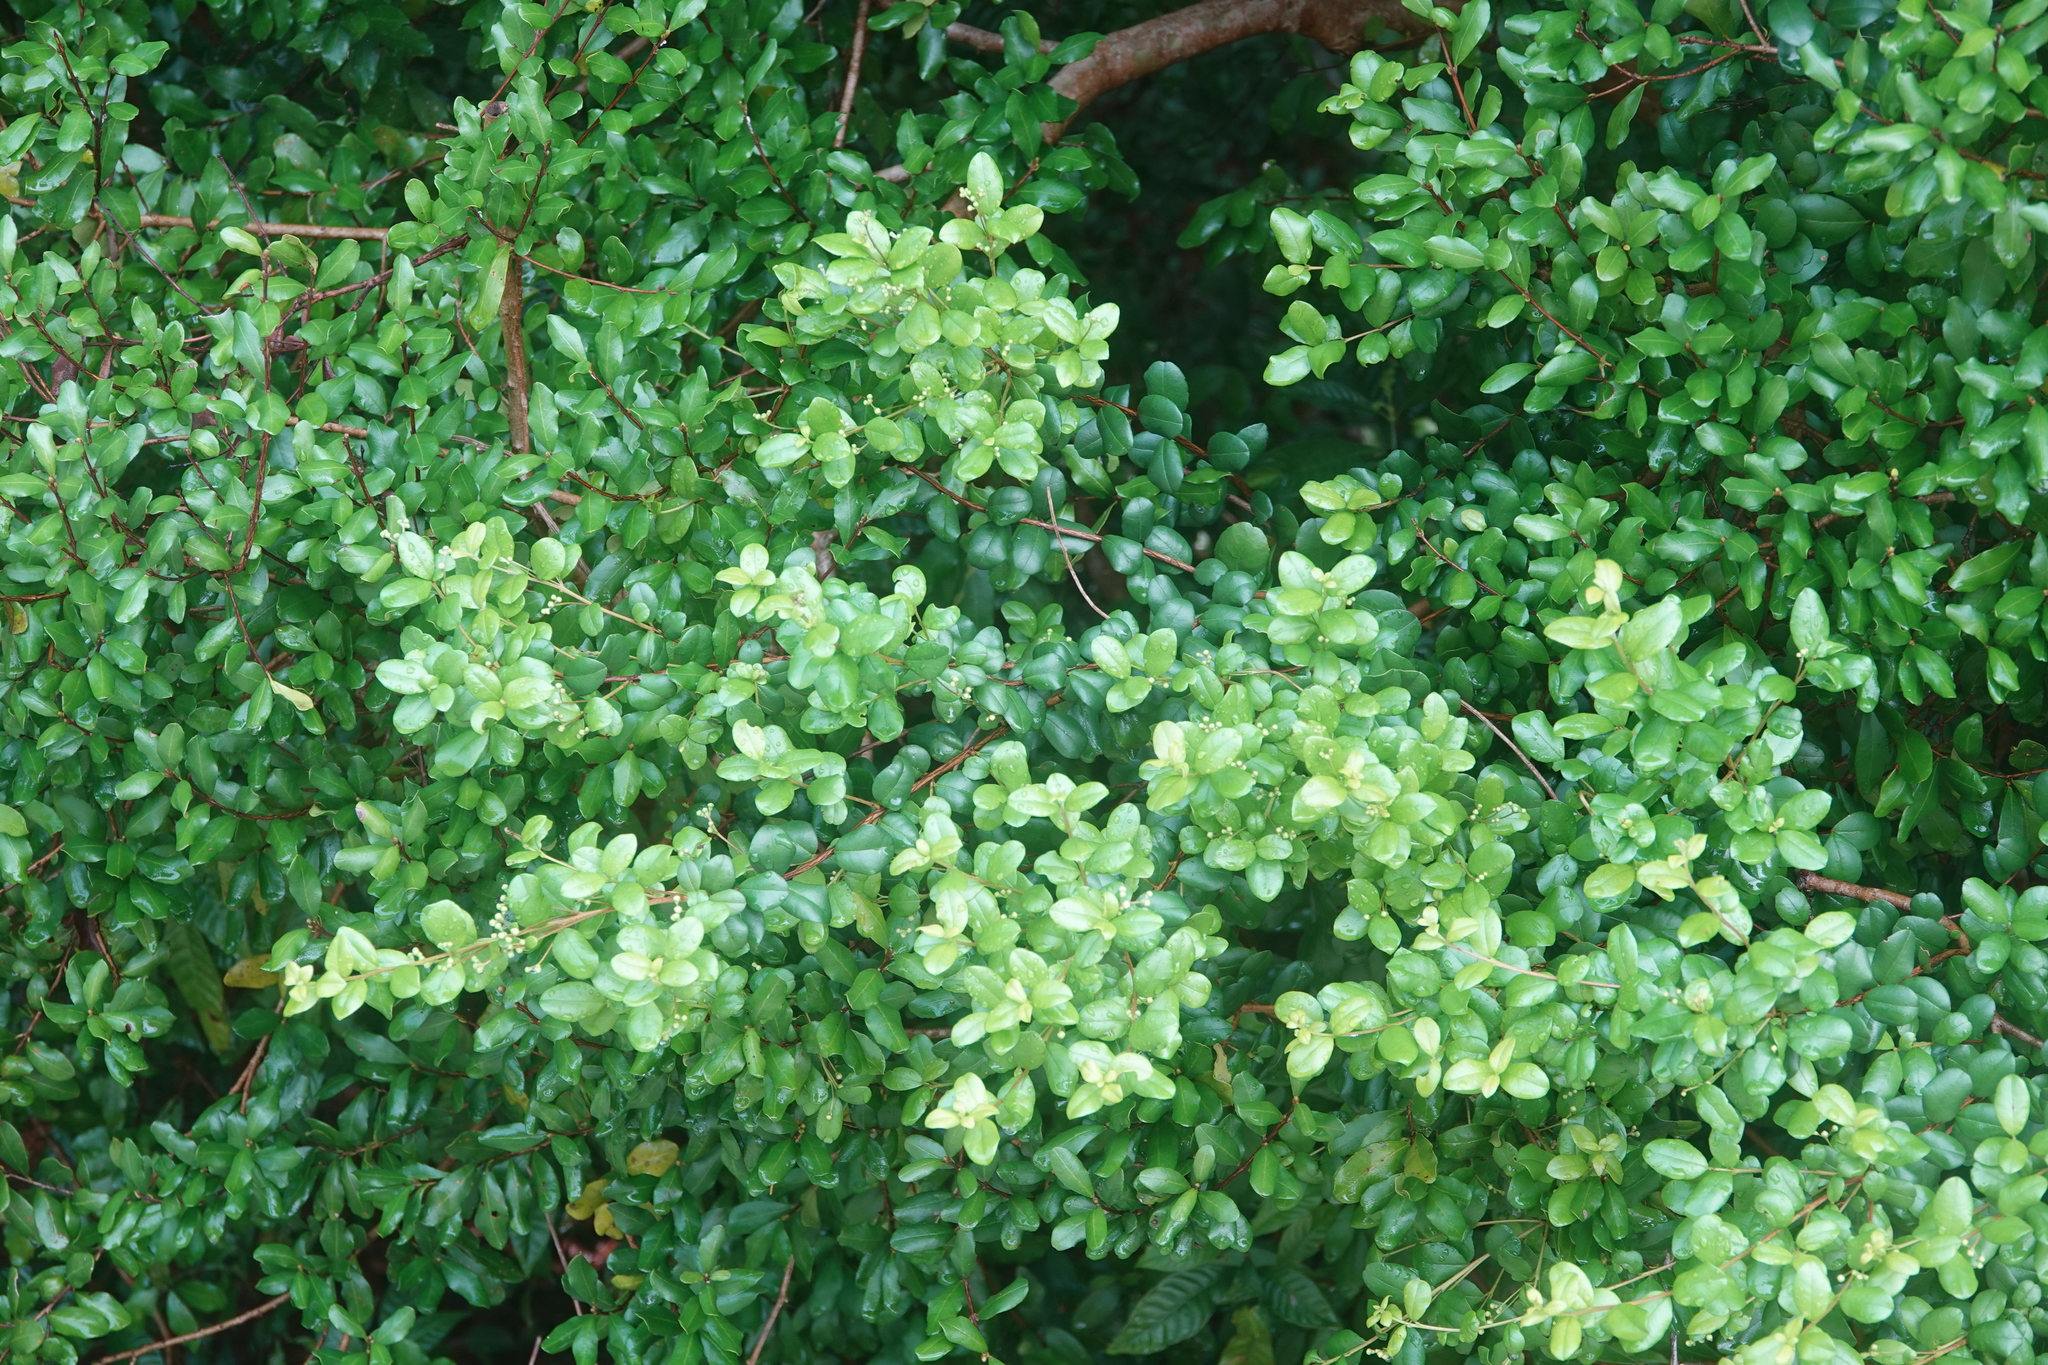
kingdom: Plantae
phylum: Tracheophyta
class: Magnoliopsida
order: Myrtales
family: Myrtaceae
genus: Myrcianthes
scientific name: Myrcianthes fragrans
